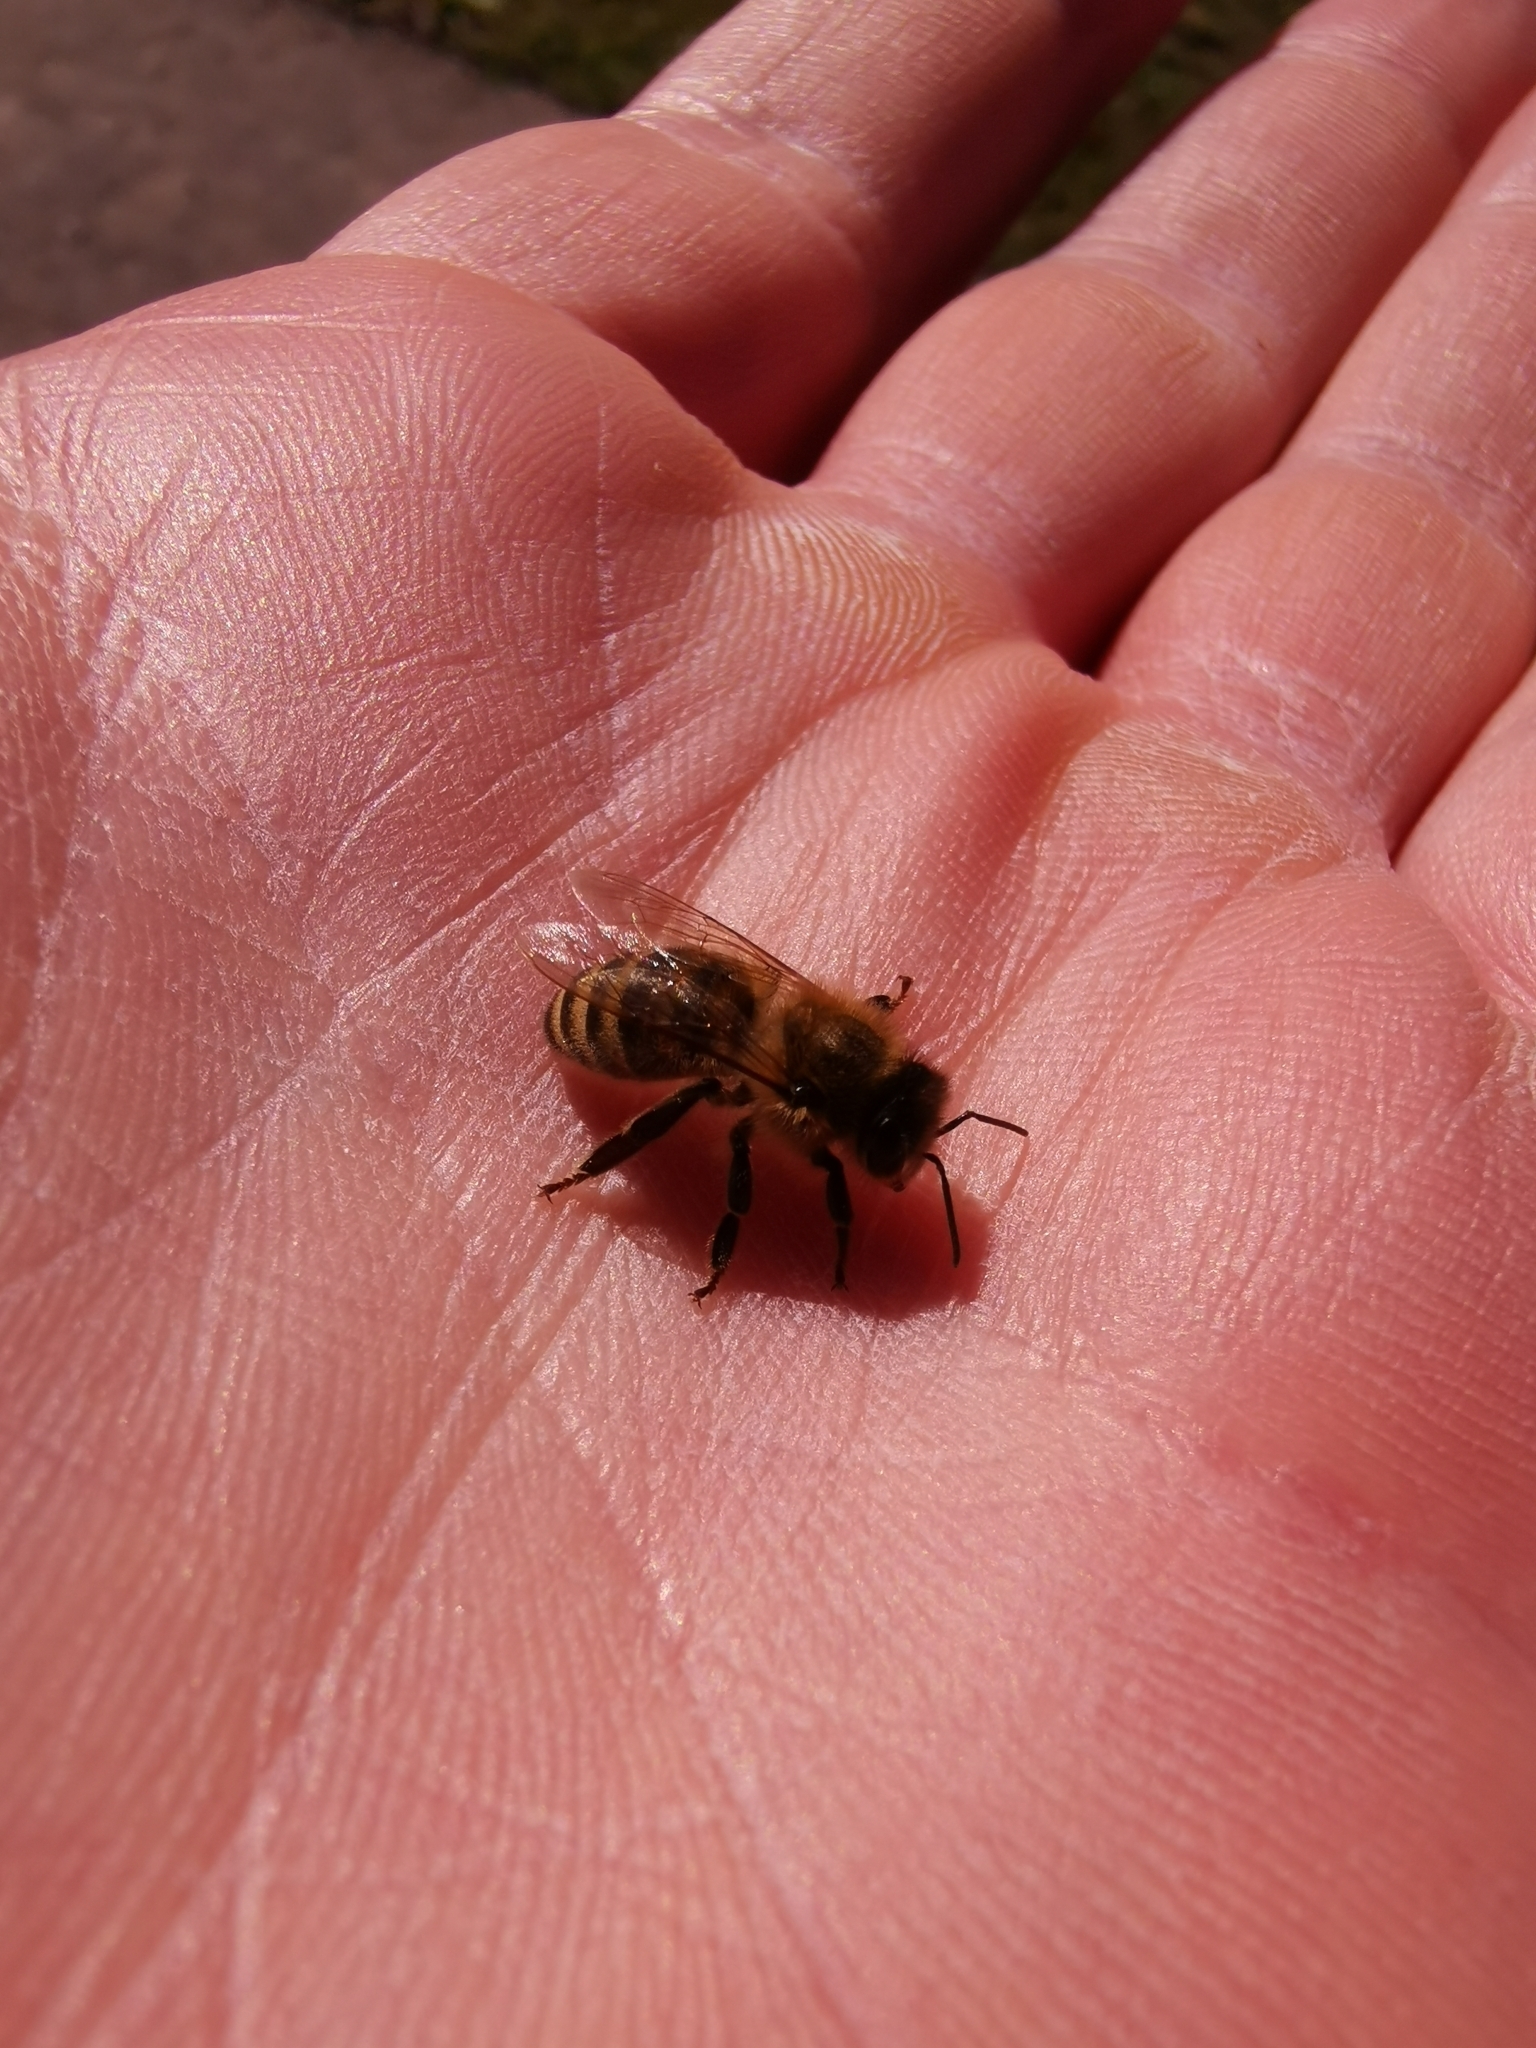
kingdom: Animalia
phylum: Arthropoda
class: Insecta
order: Hymenoptera
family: Apidae
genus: Apis
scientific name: Apis mellifera
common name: Honey bee
